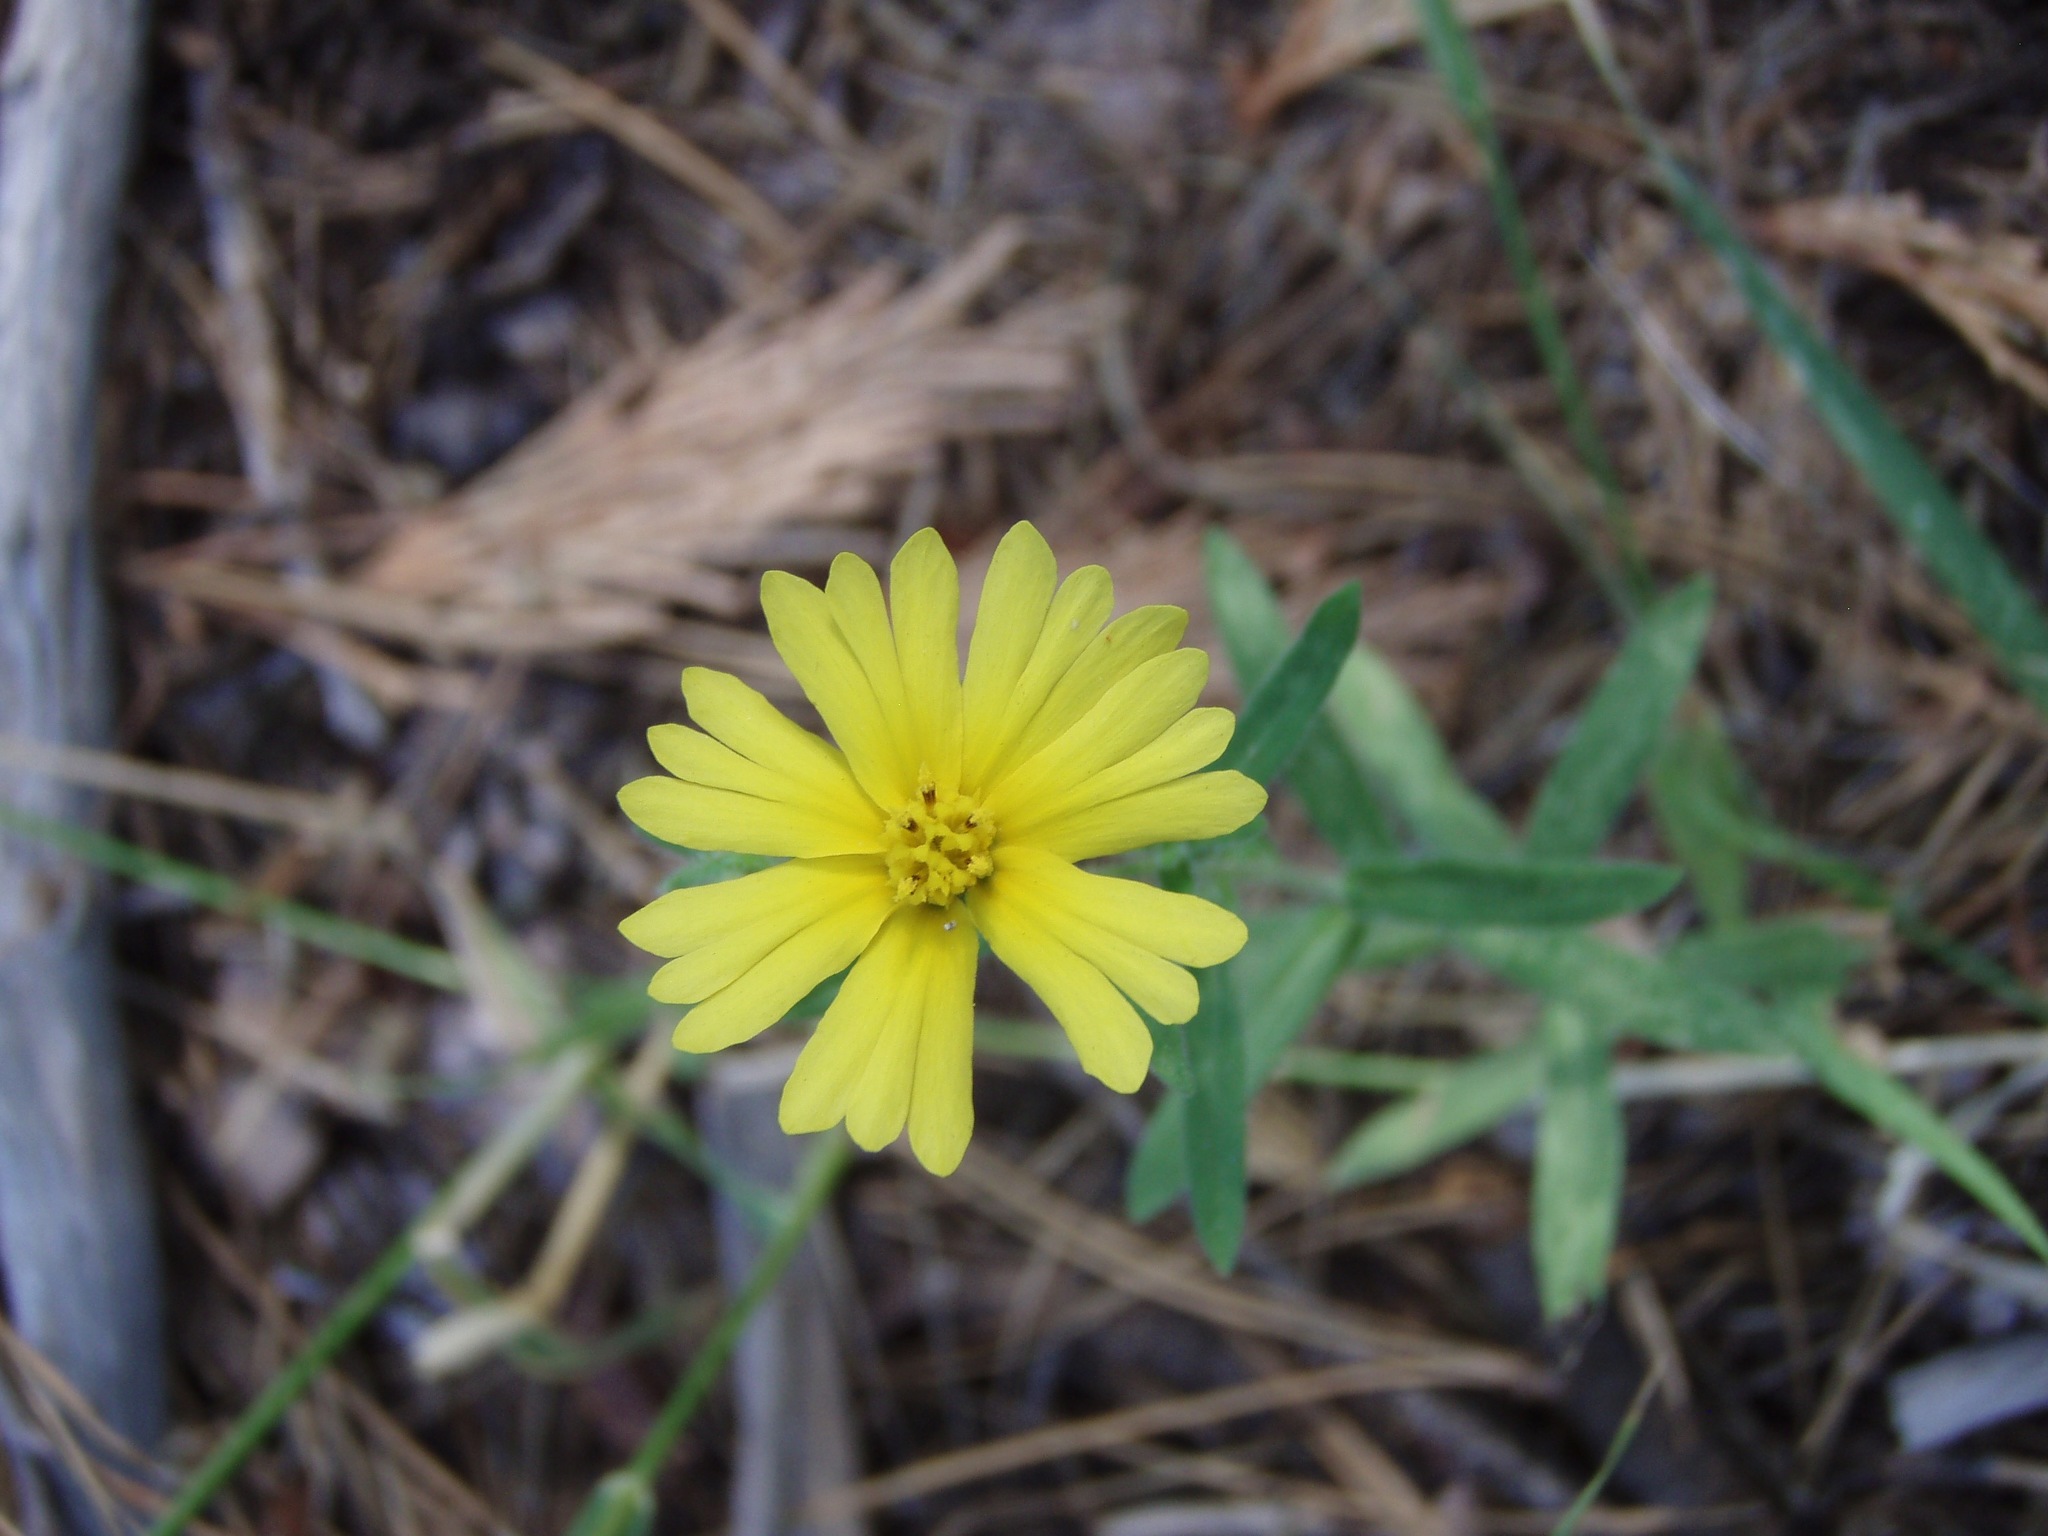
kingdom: Plantae
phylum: Tracheophyta
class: Magnoliopsida
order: Asterales
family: Asteraceae
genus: Madia
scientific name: Madia elegans
